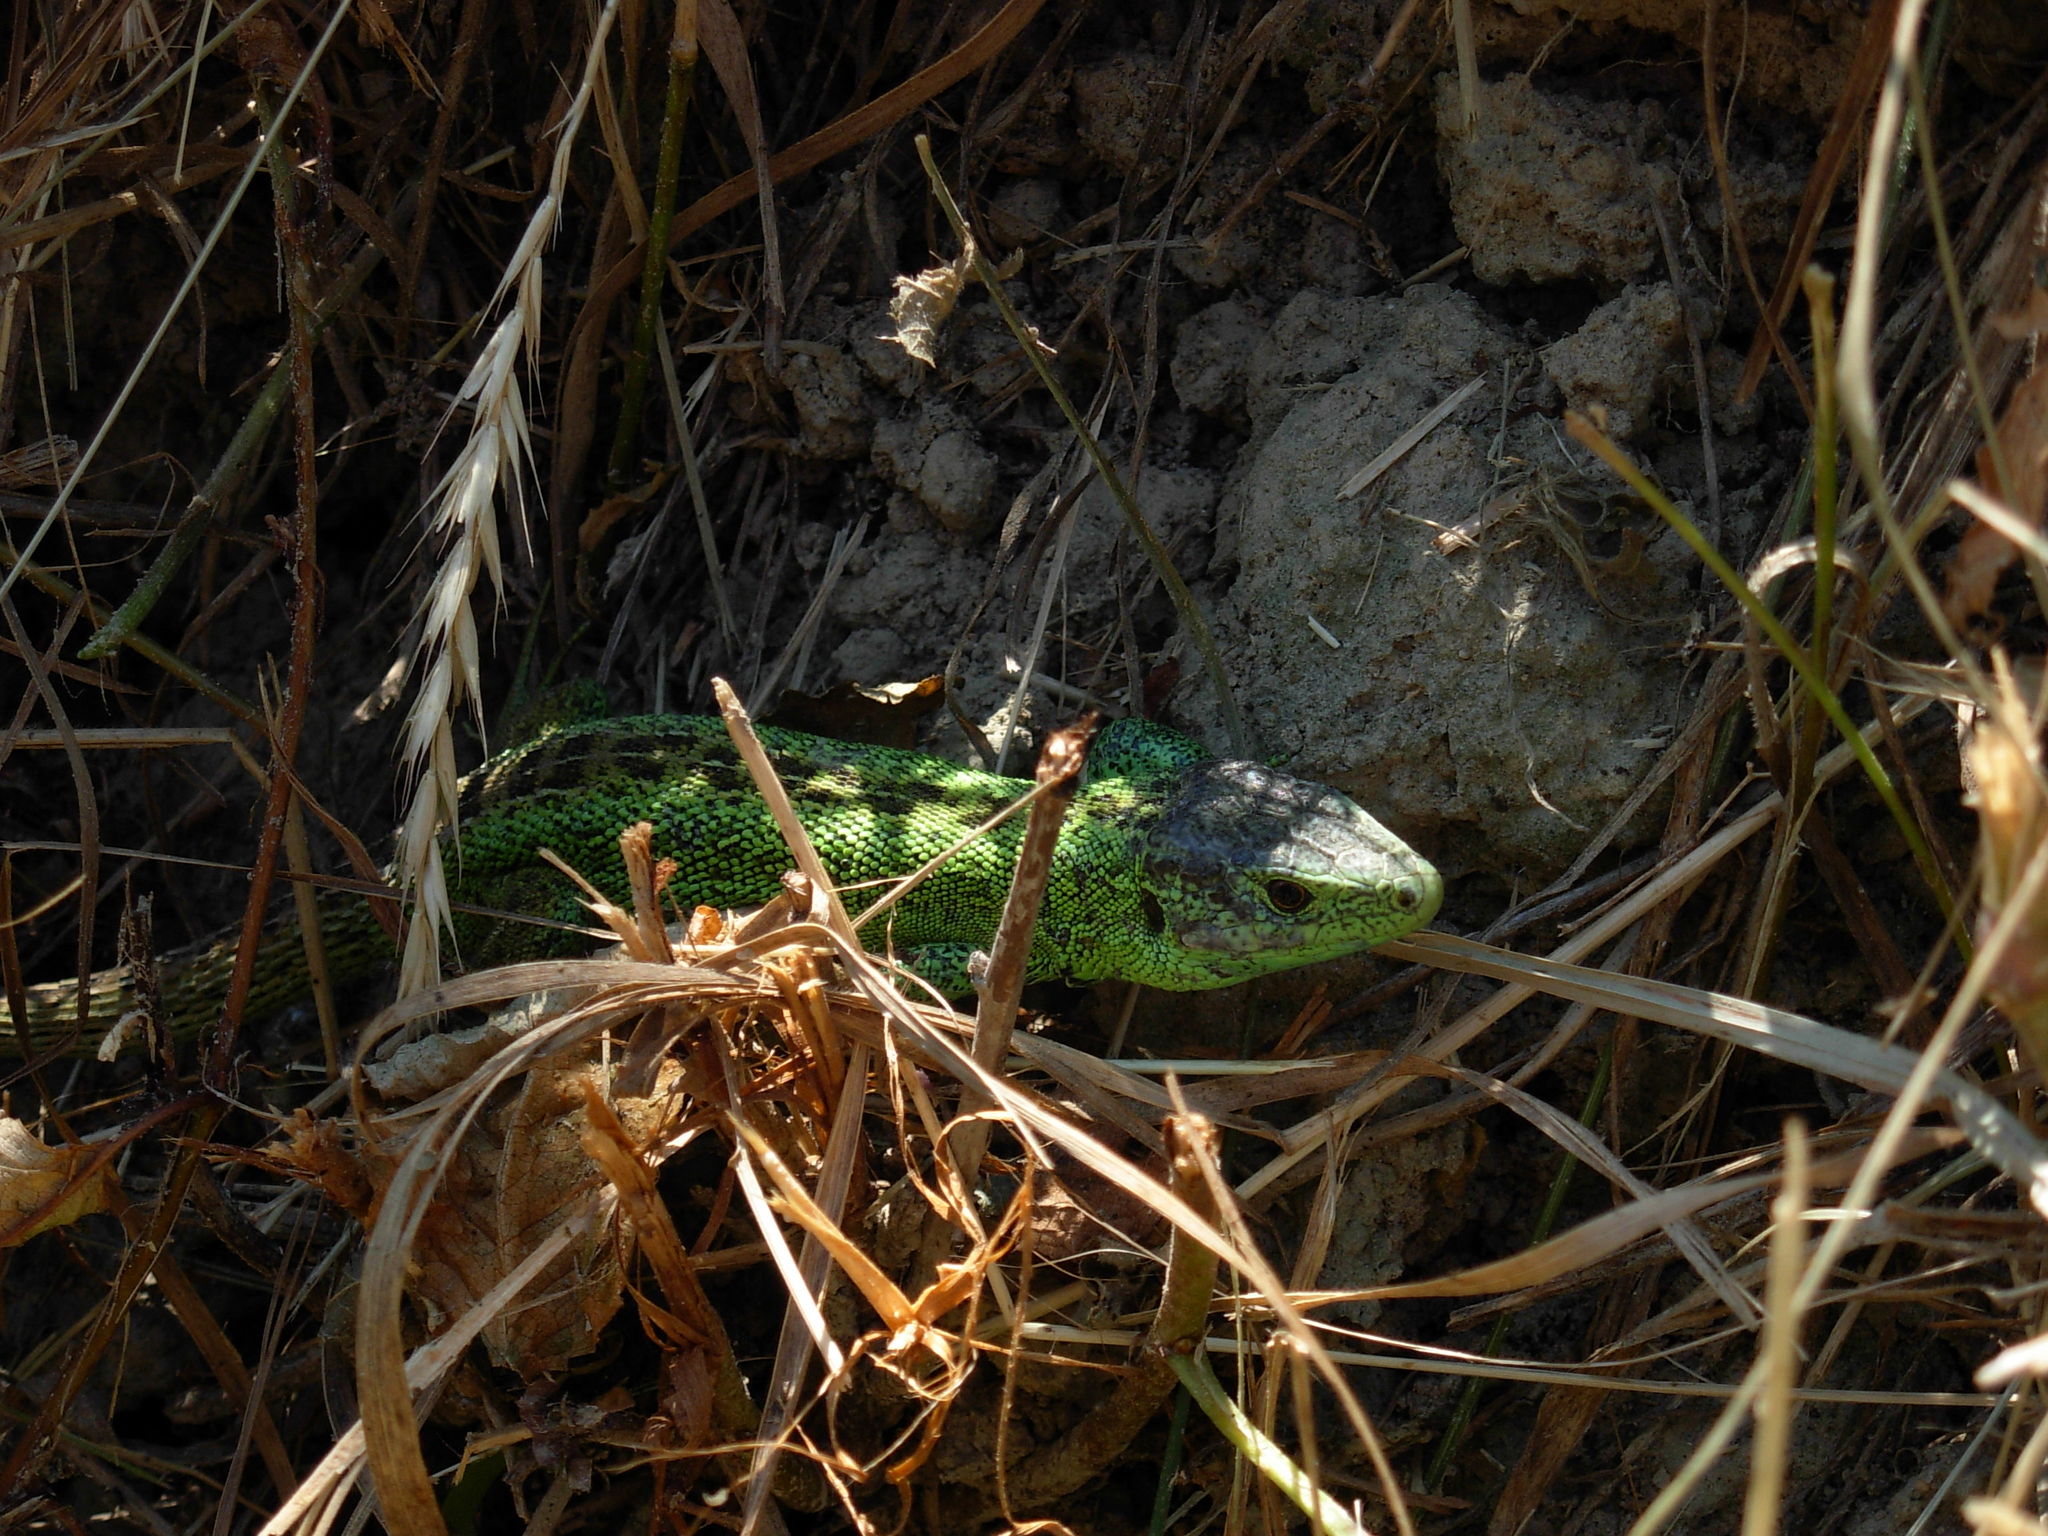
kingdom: Animalia
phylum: Chordata
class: Squamata
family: Lacertidae
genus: Lacerta
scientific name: Lacerta agilis
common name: Sand lizard
